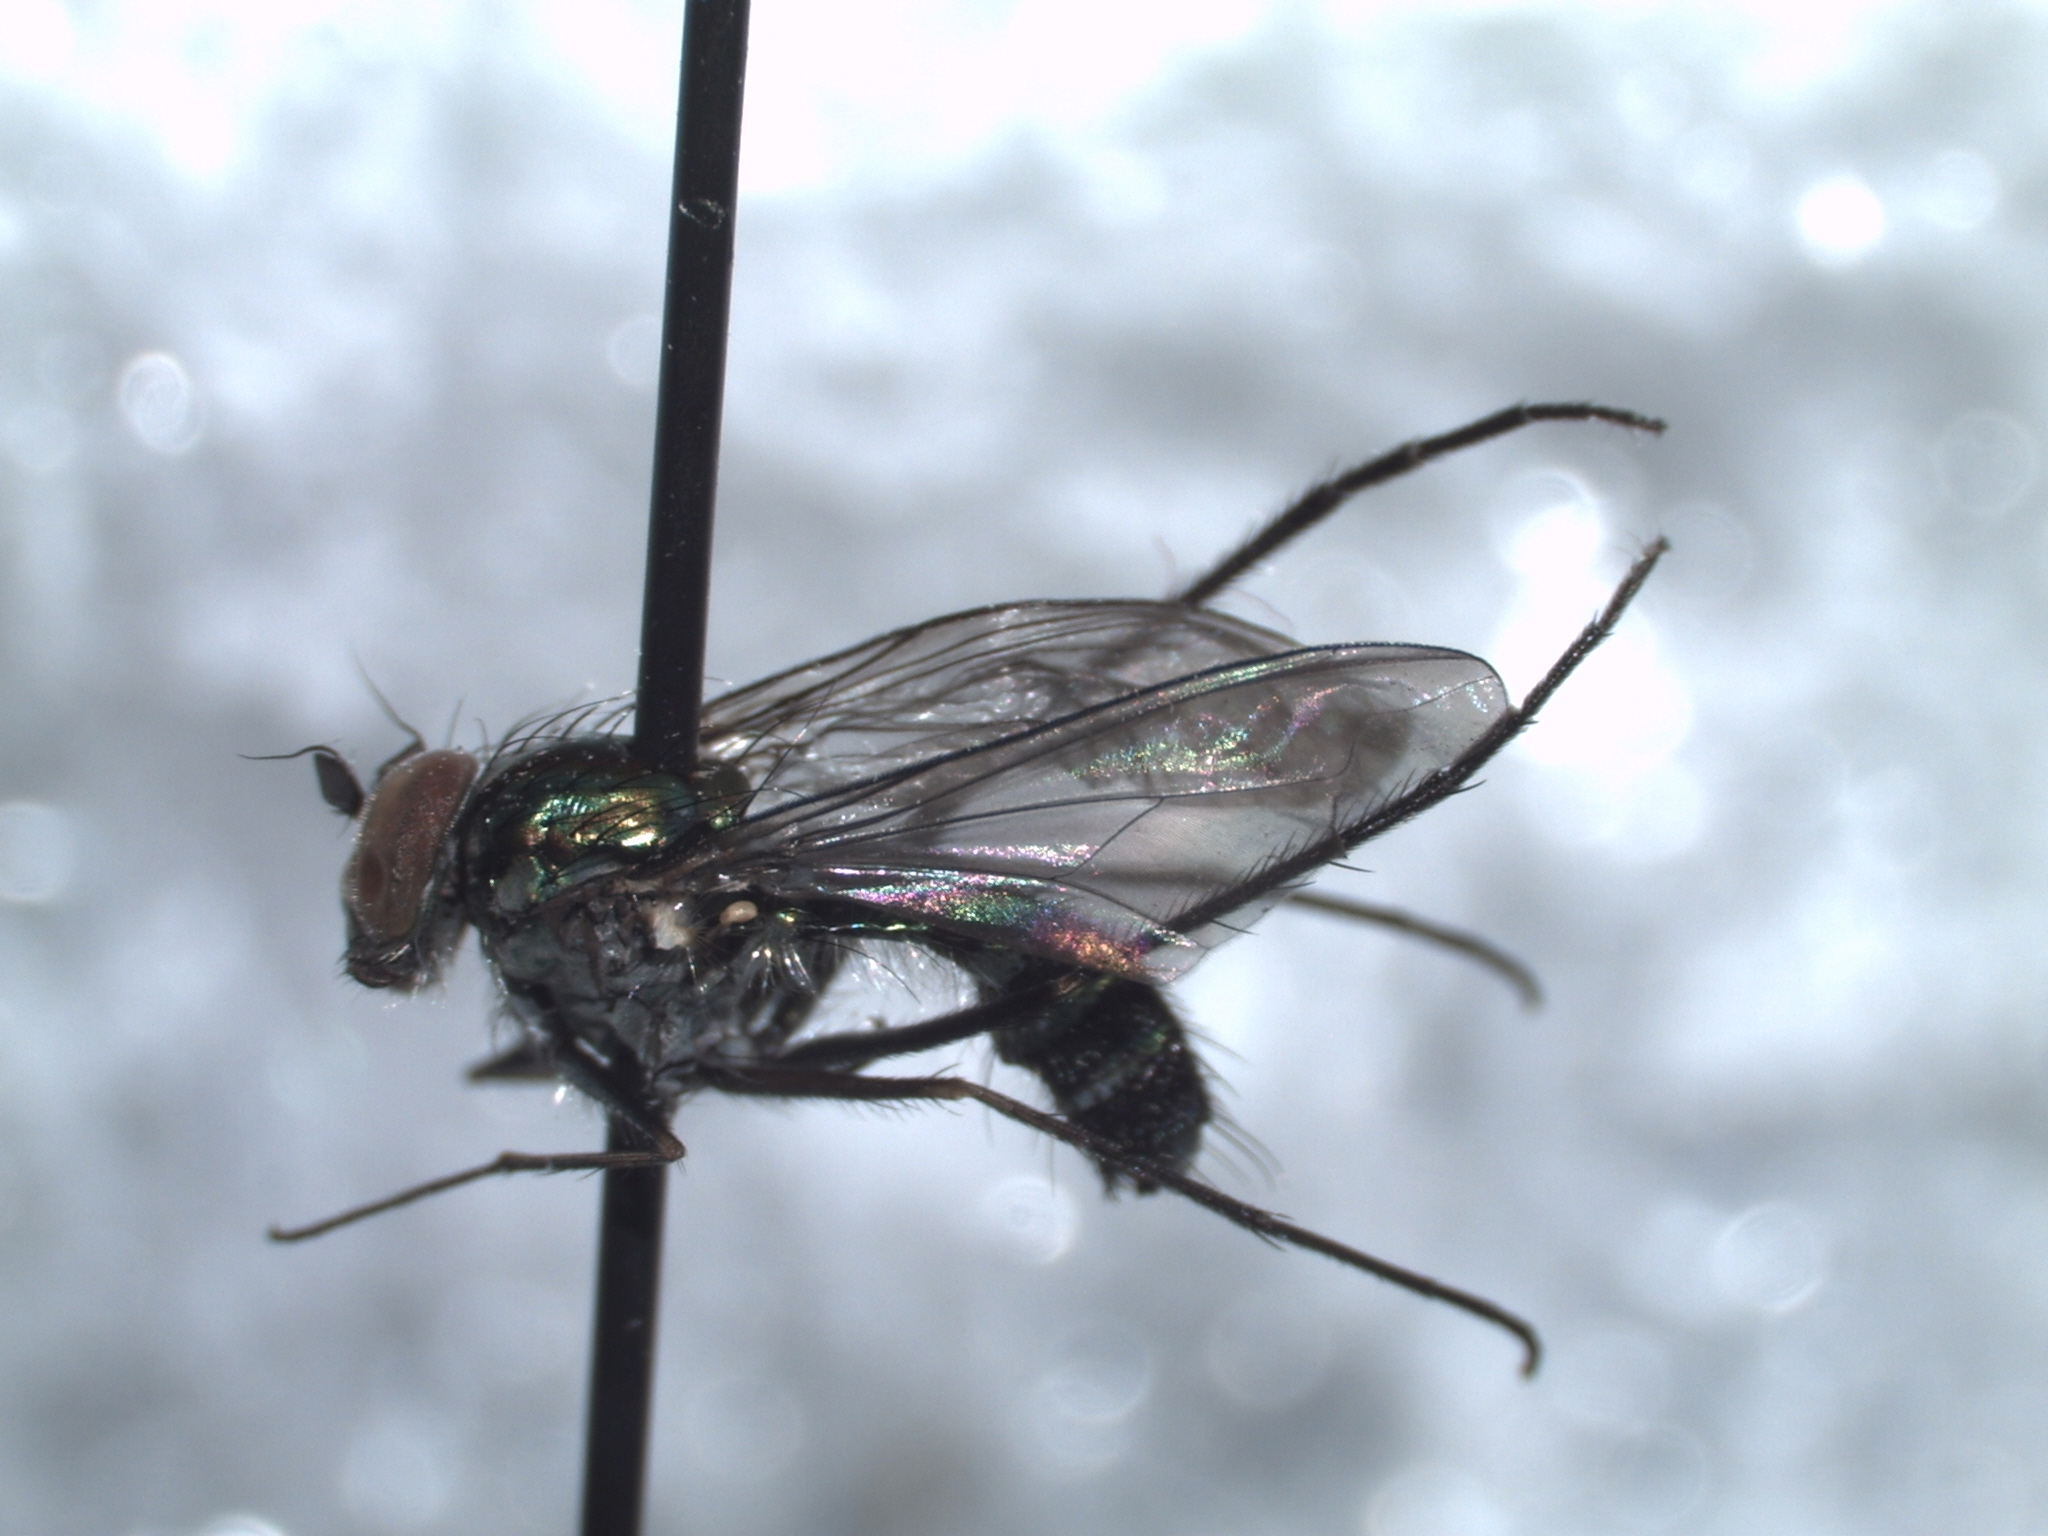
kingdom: Animalia
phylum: Arthropoda
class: Insecta
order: Diptera
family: Dolichopodidae
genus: Plagioneurus
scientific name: Plagioneurus univittatus
